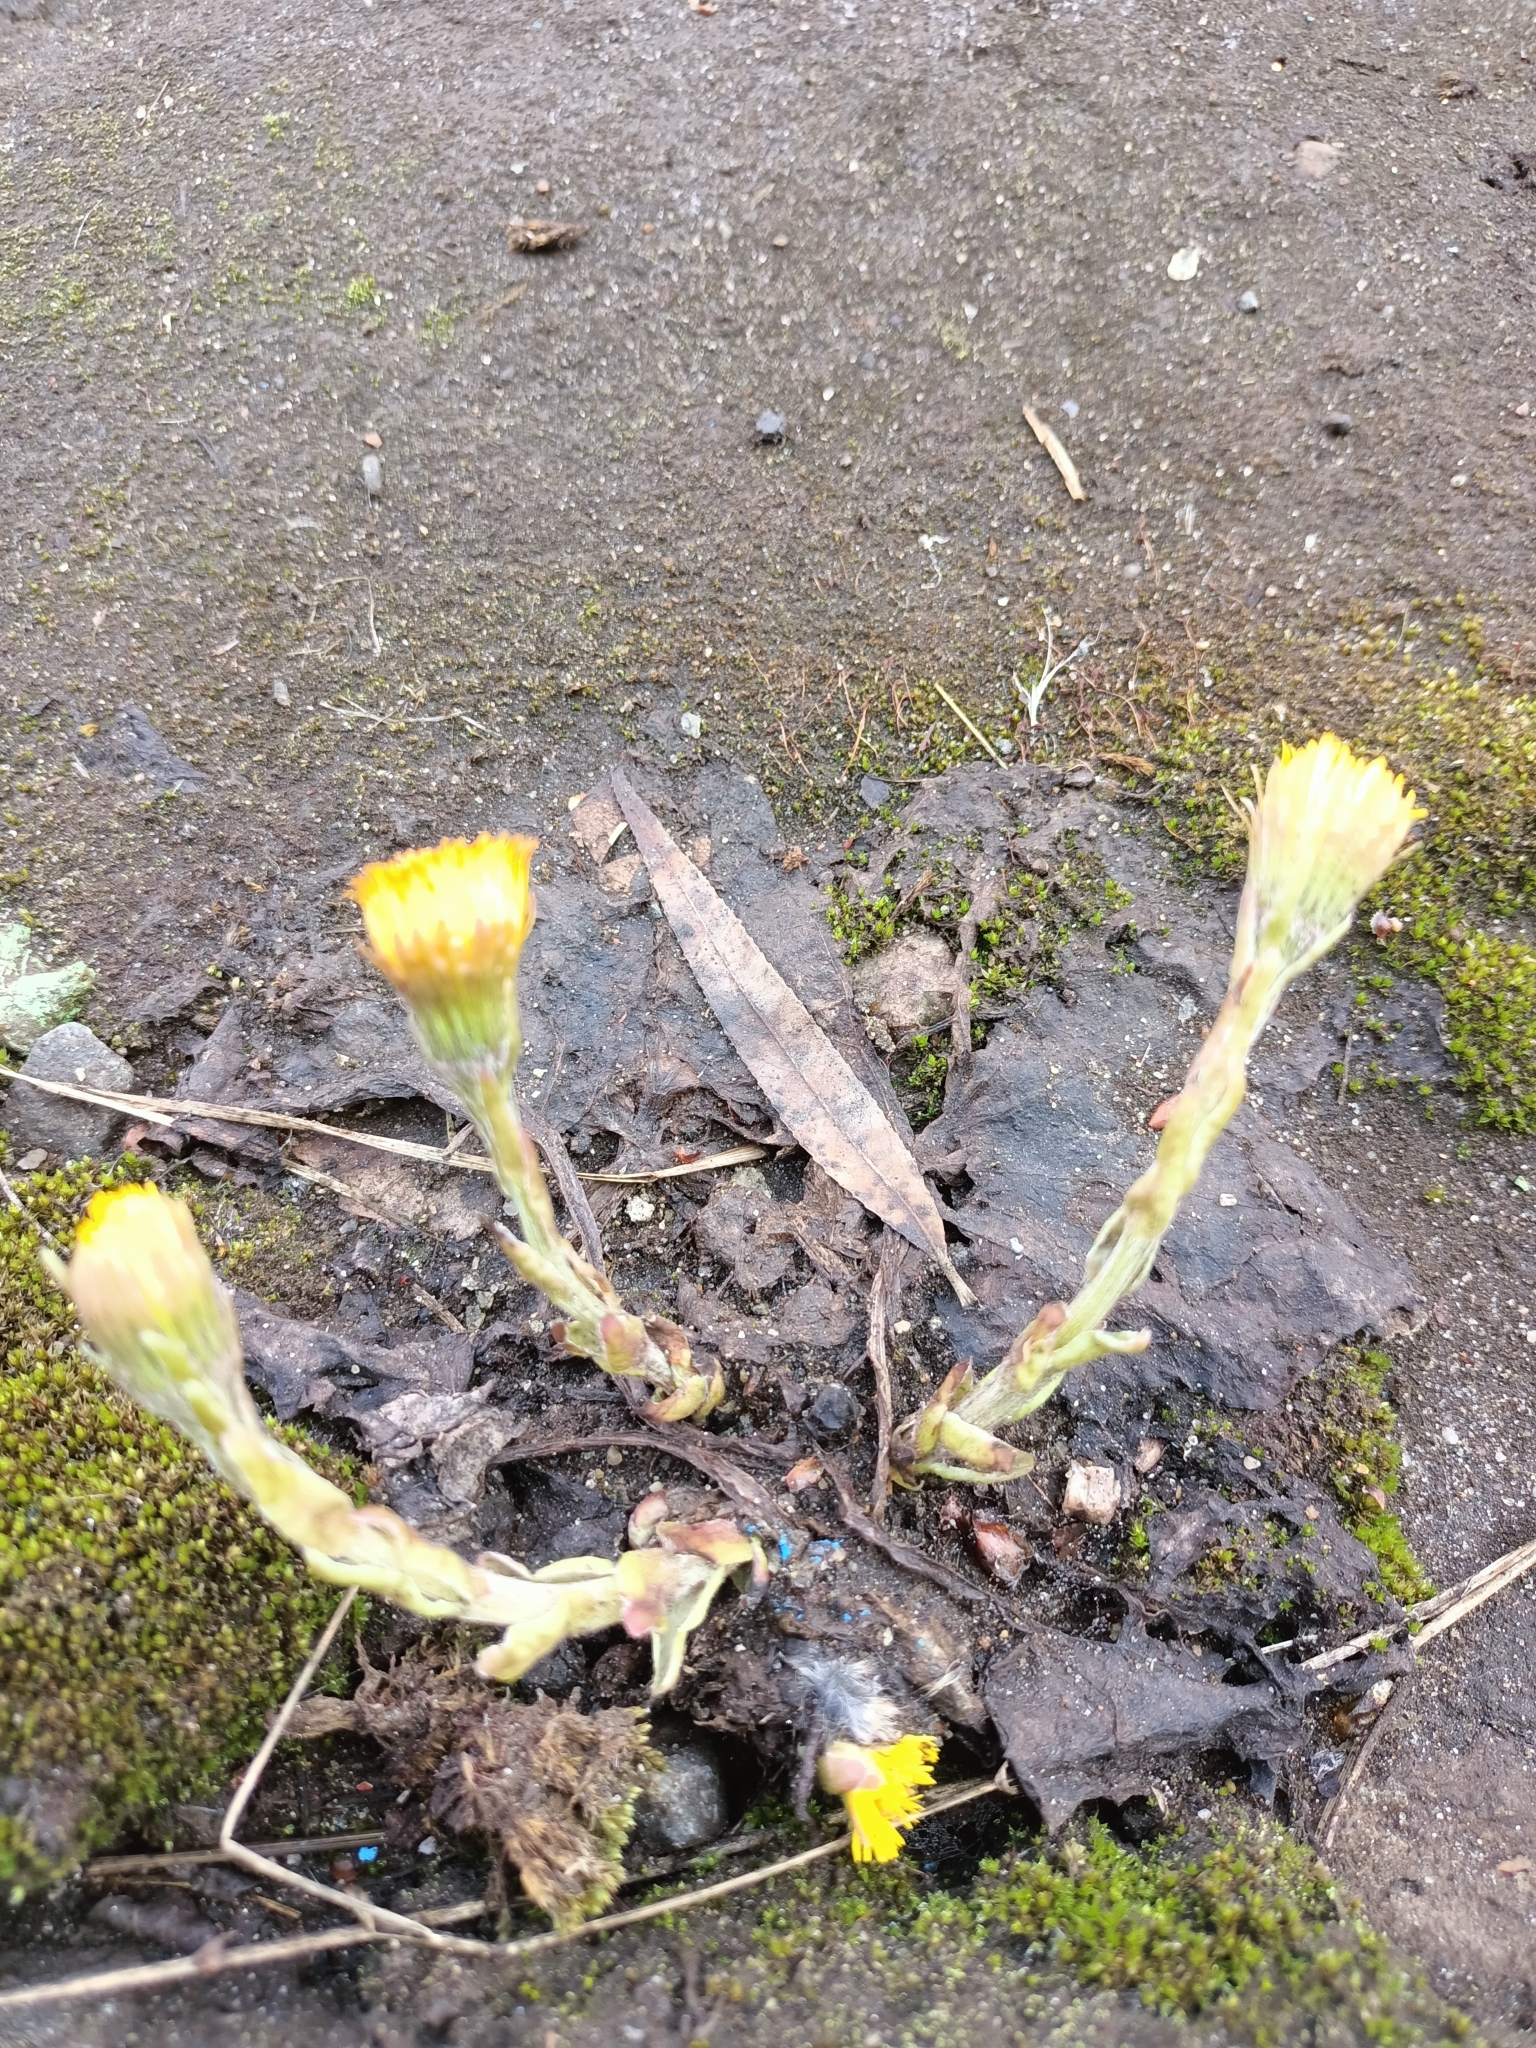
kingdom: Plantae
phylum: Tracheophyta
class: Magnoliopsida
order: Asterales
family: Asteraceae
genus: Tussilago
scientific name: Tussilago farfara
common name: Coltsfoot
